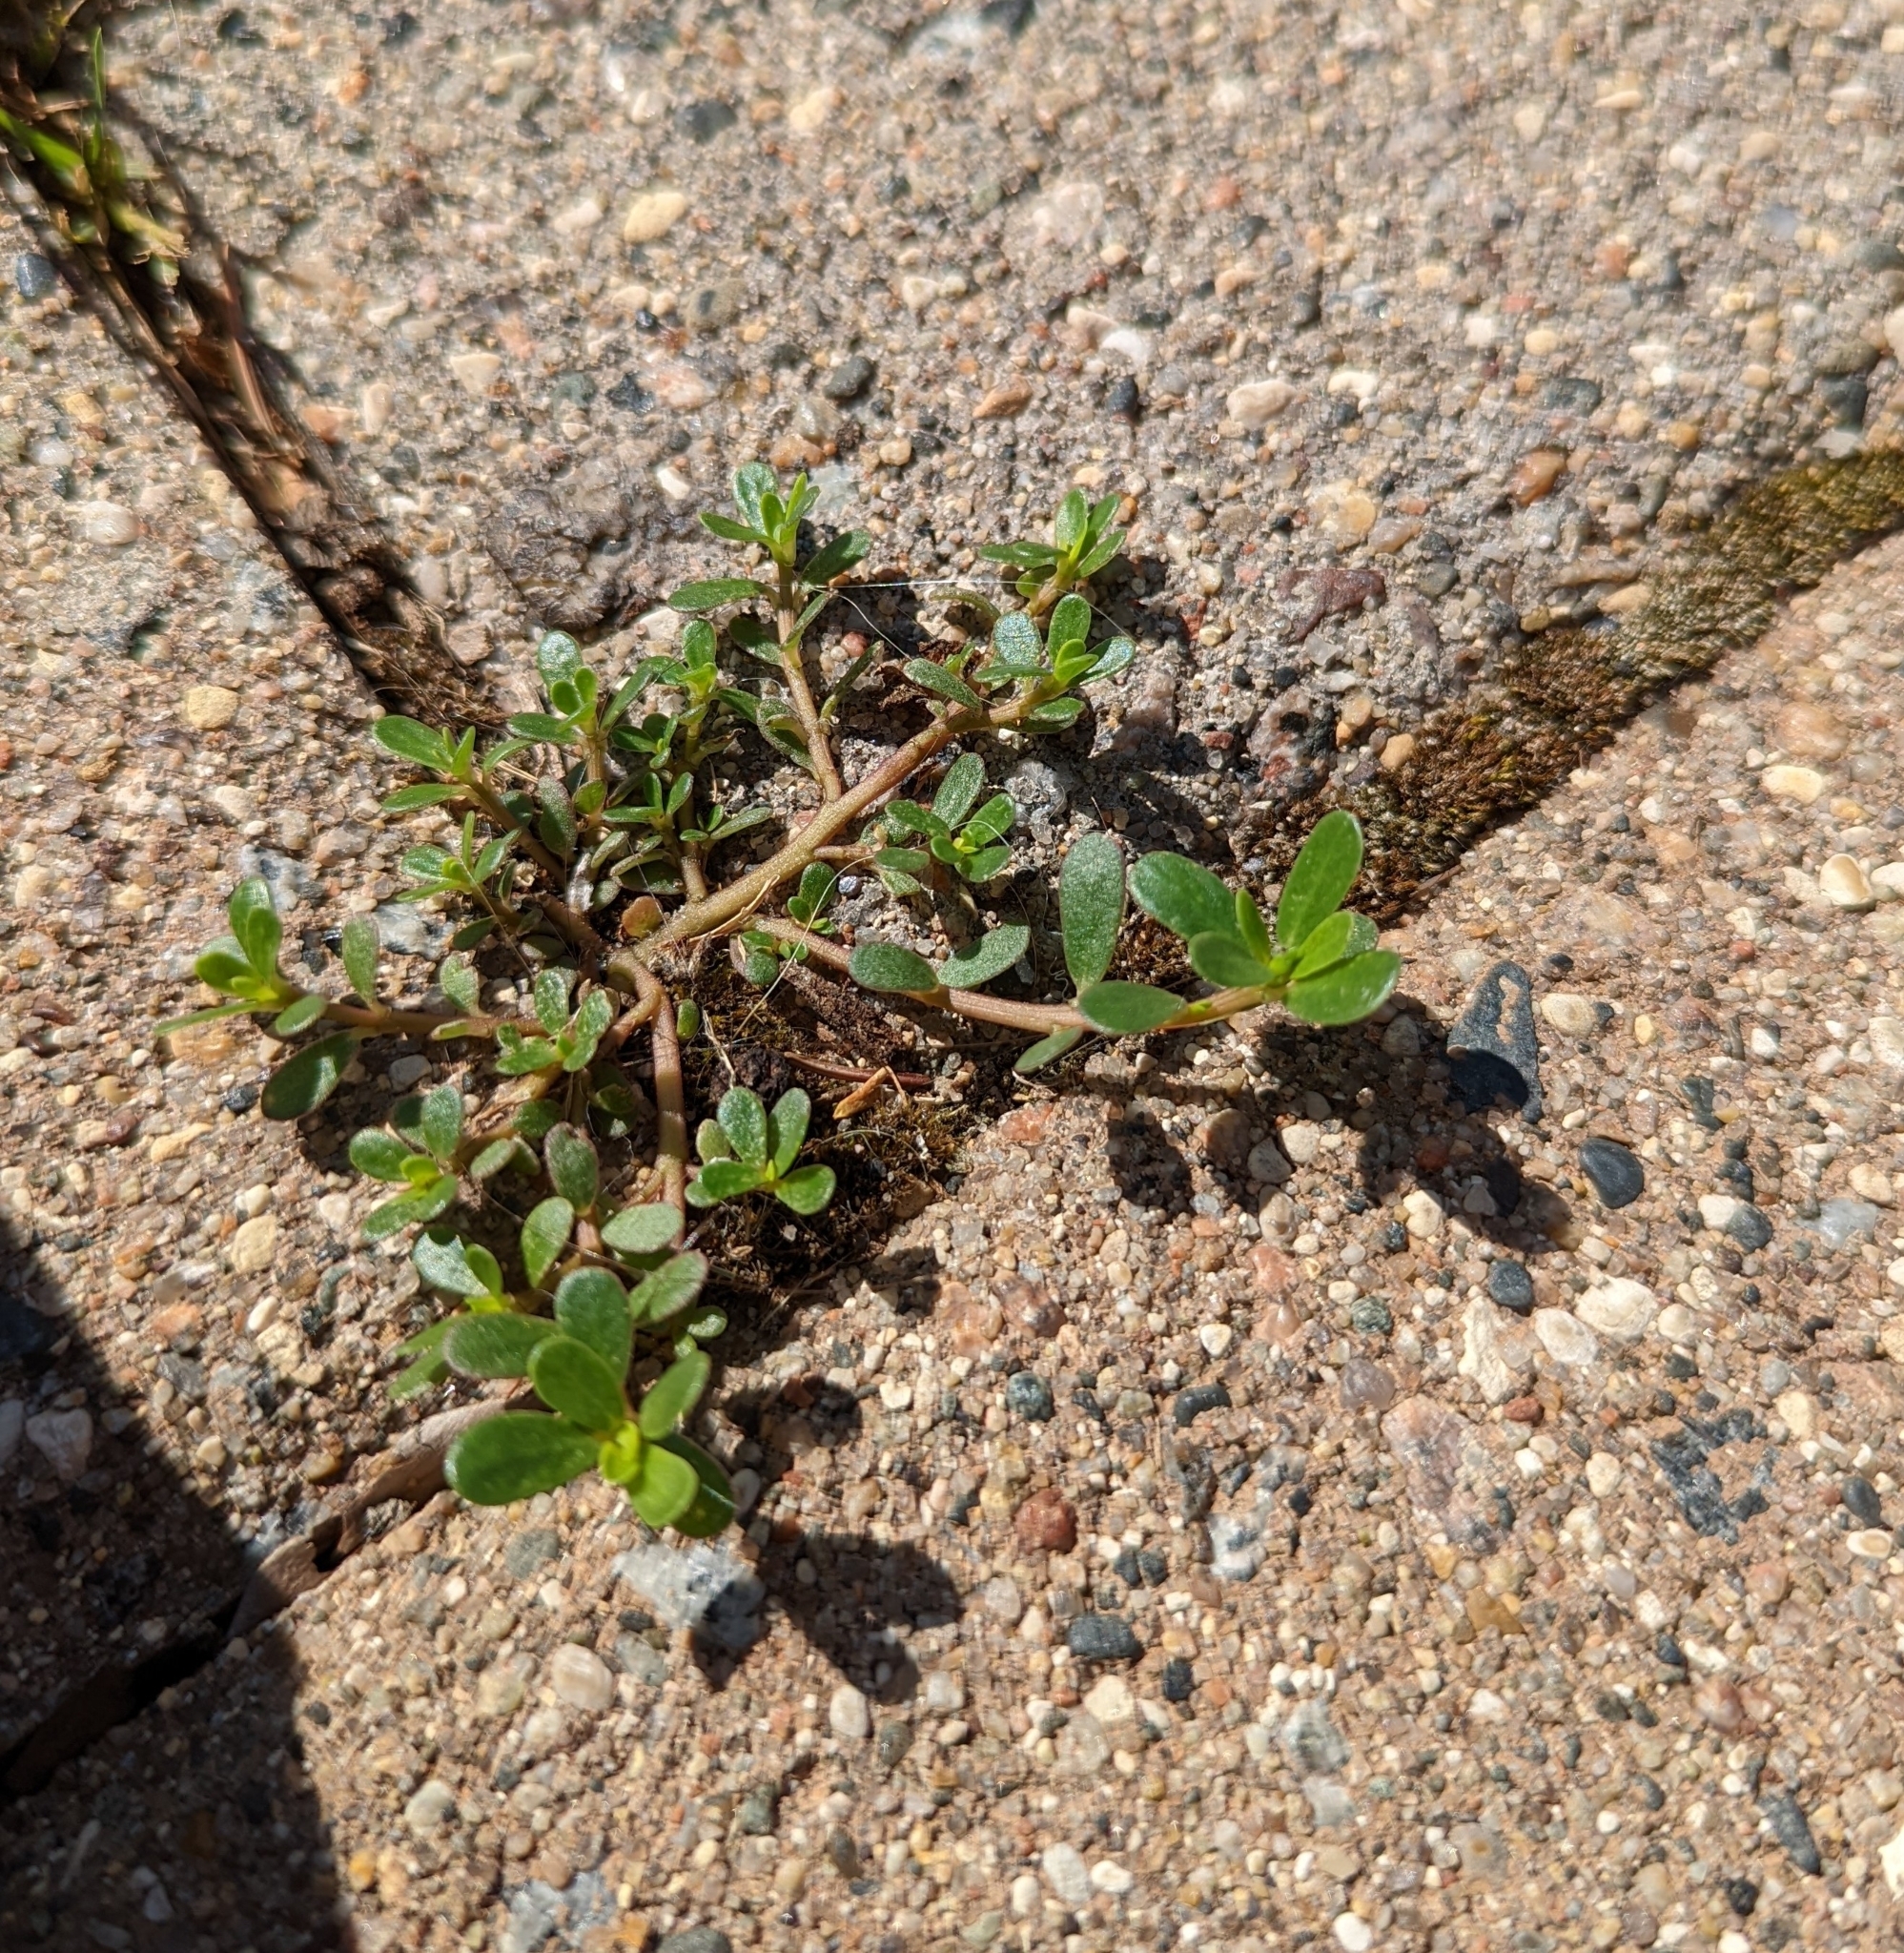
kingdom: Plantae
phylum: Tracheophyta
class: Magnoliopsida
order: Caryophyllales
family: Portulacaceae
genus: Portulaca
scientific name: Portulaca oleracea
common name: Common purslane
